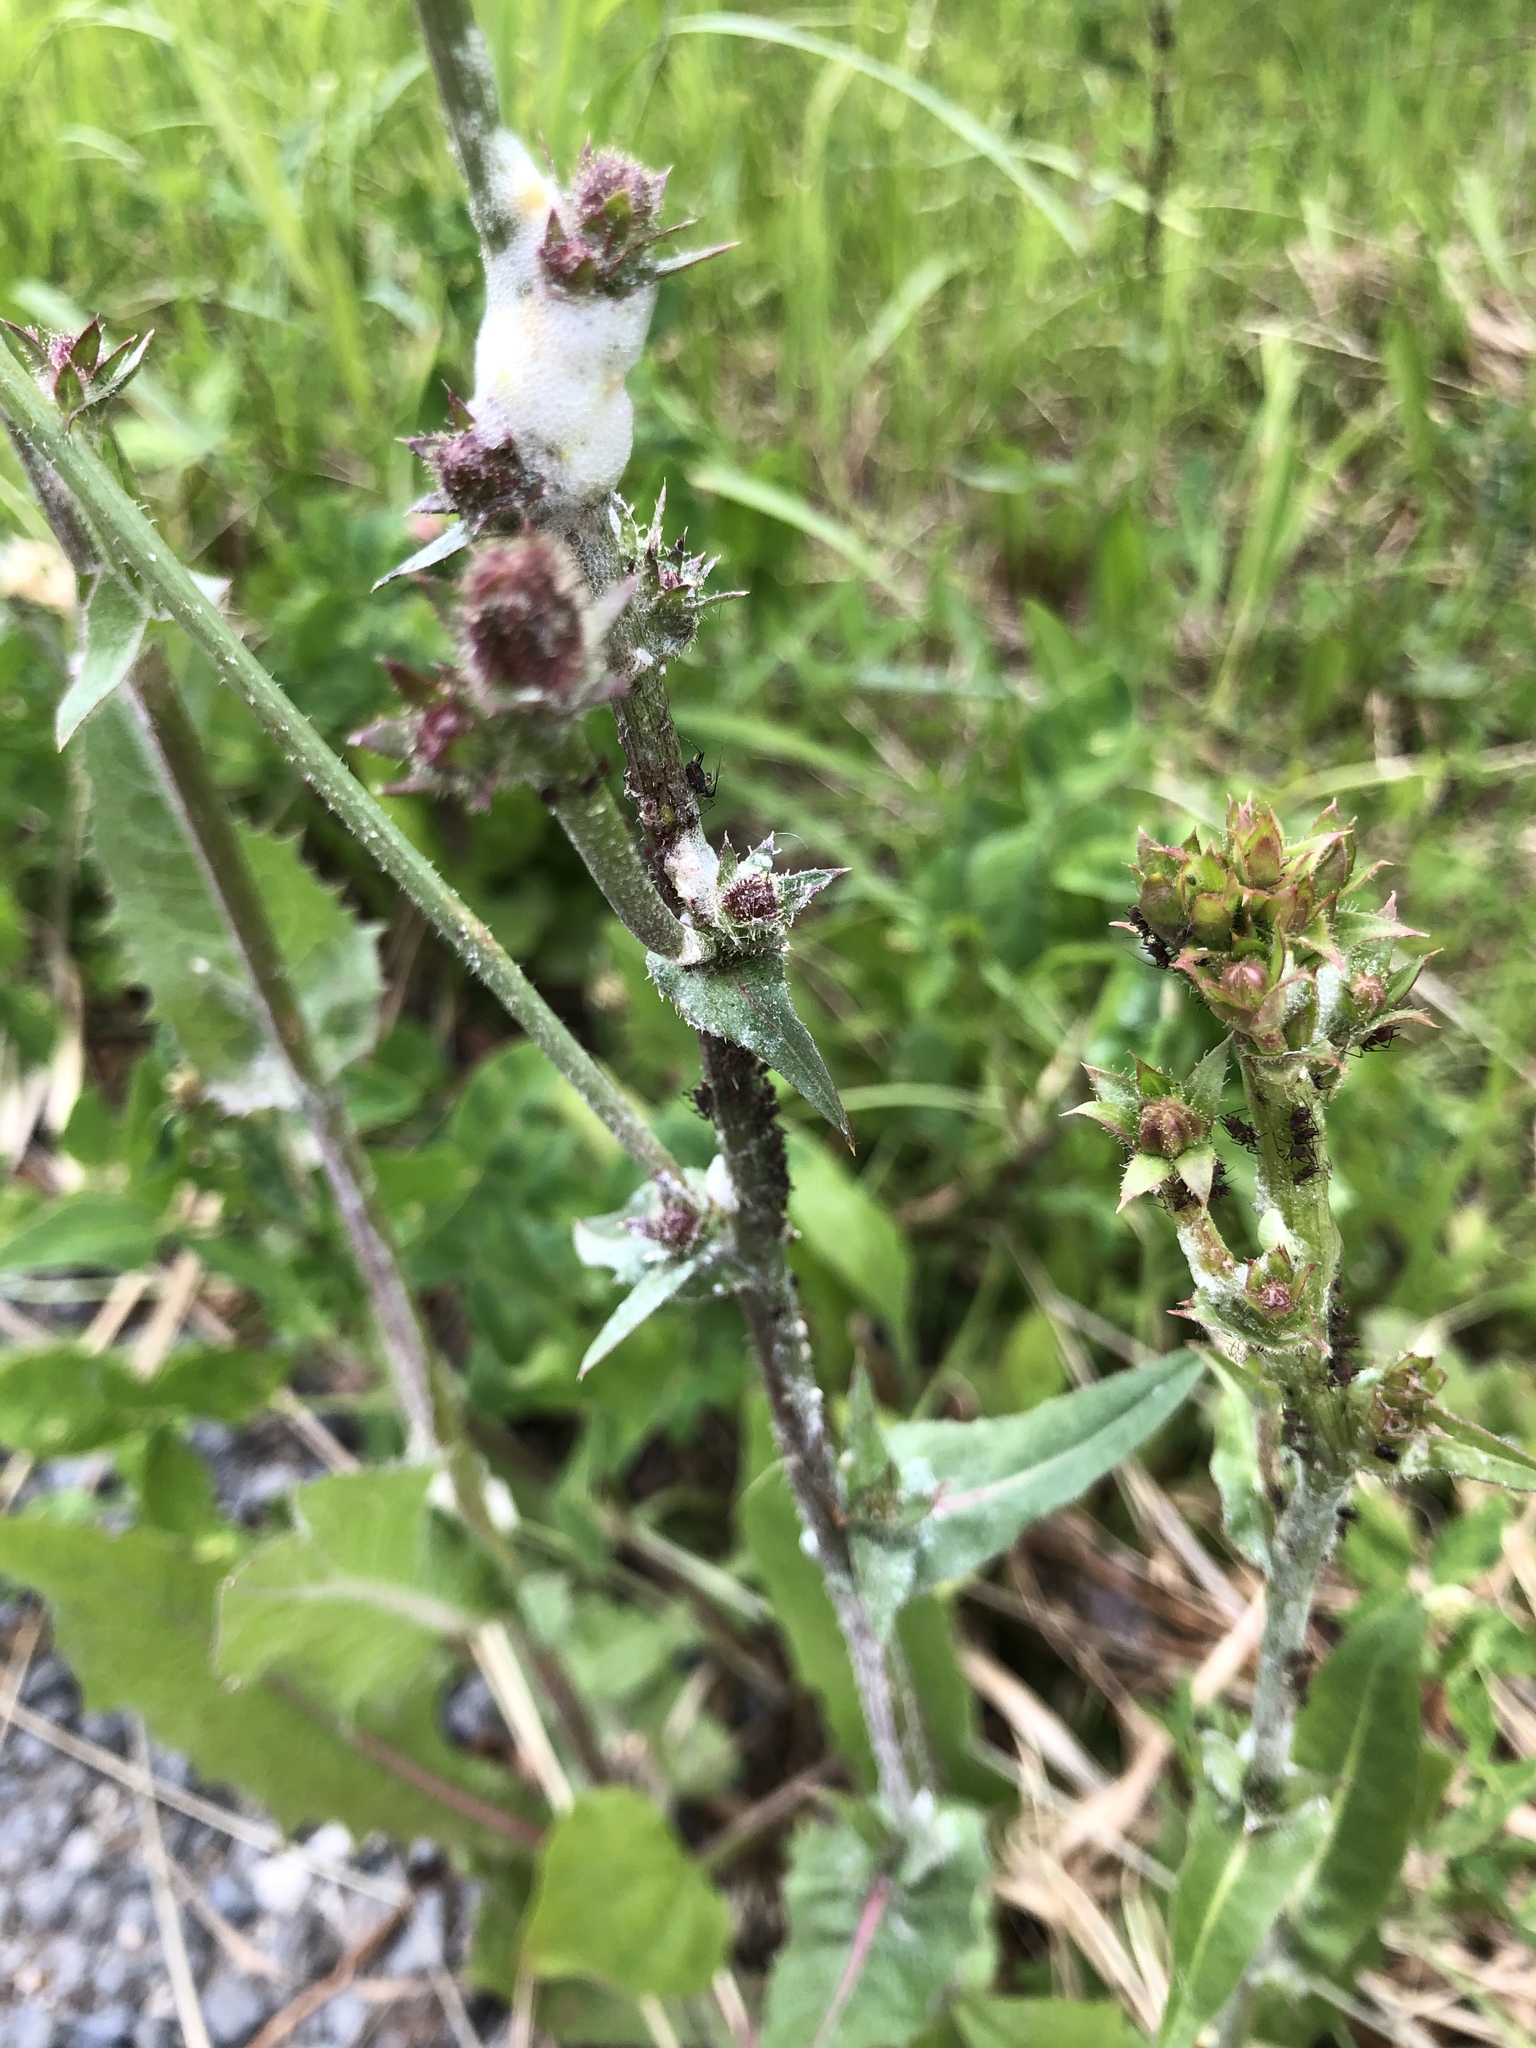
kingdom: Plantae
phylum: Tracheophyta
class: Magnoliopsida
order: Asterales
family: Asteraceae
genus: Cichorium
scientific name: Cichorium intybus
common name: Chicory
